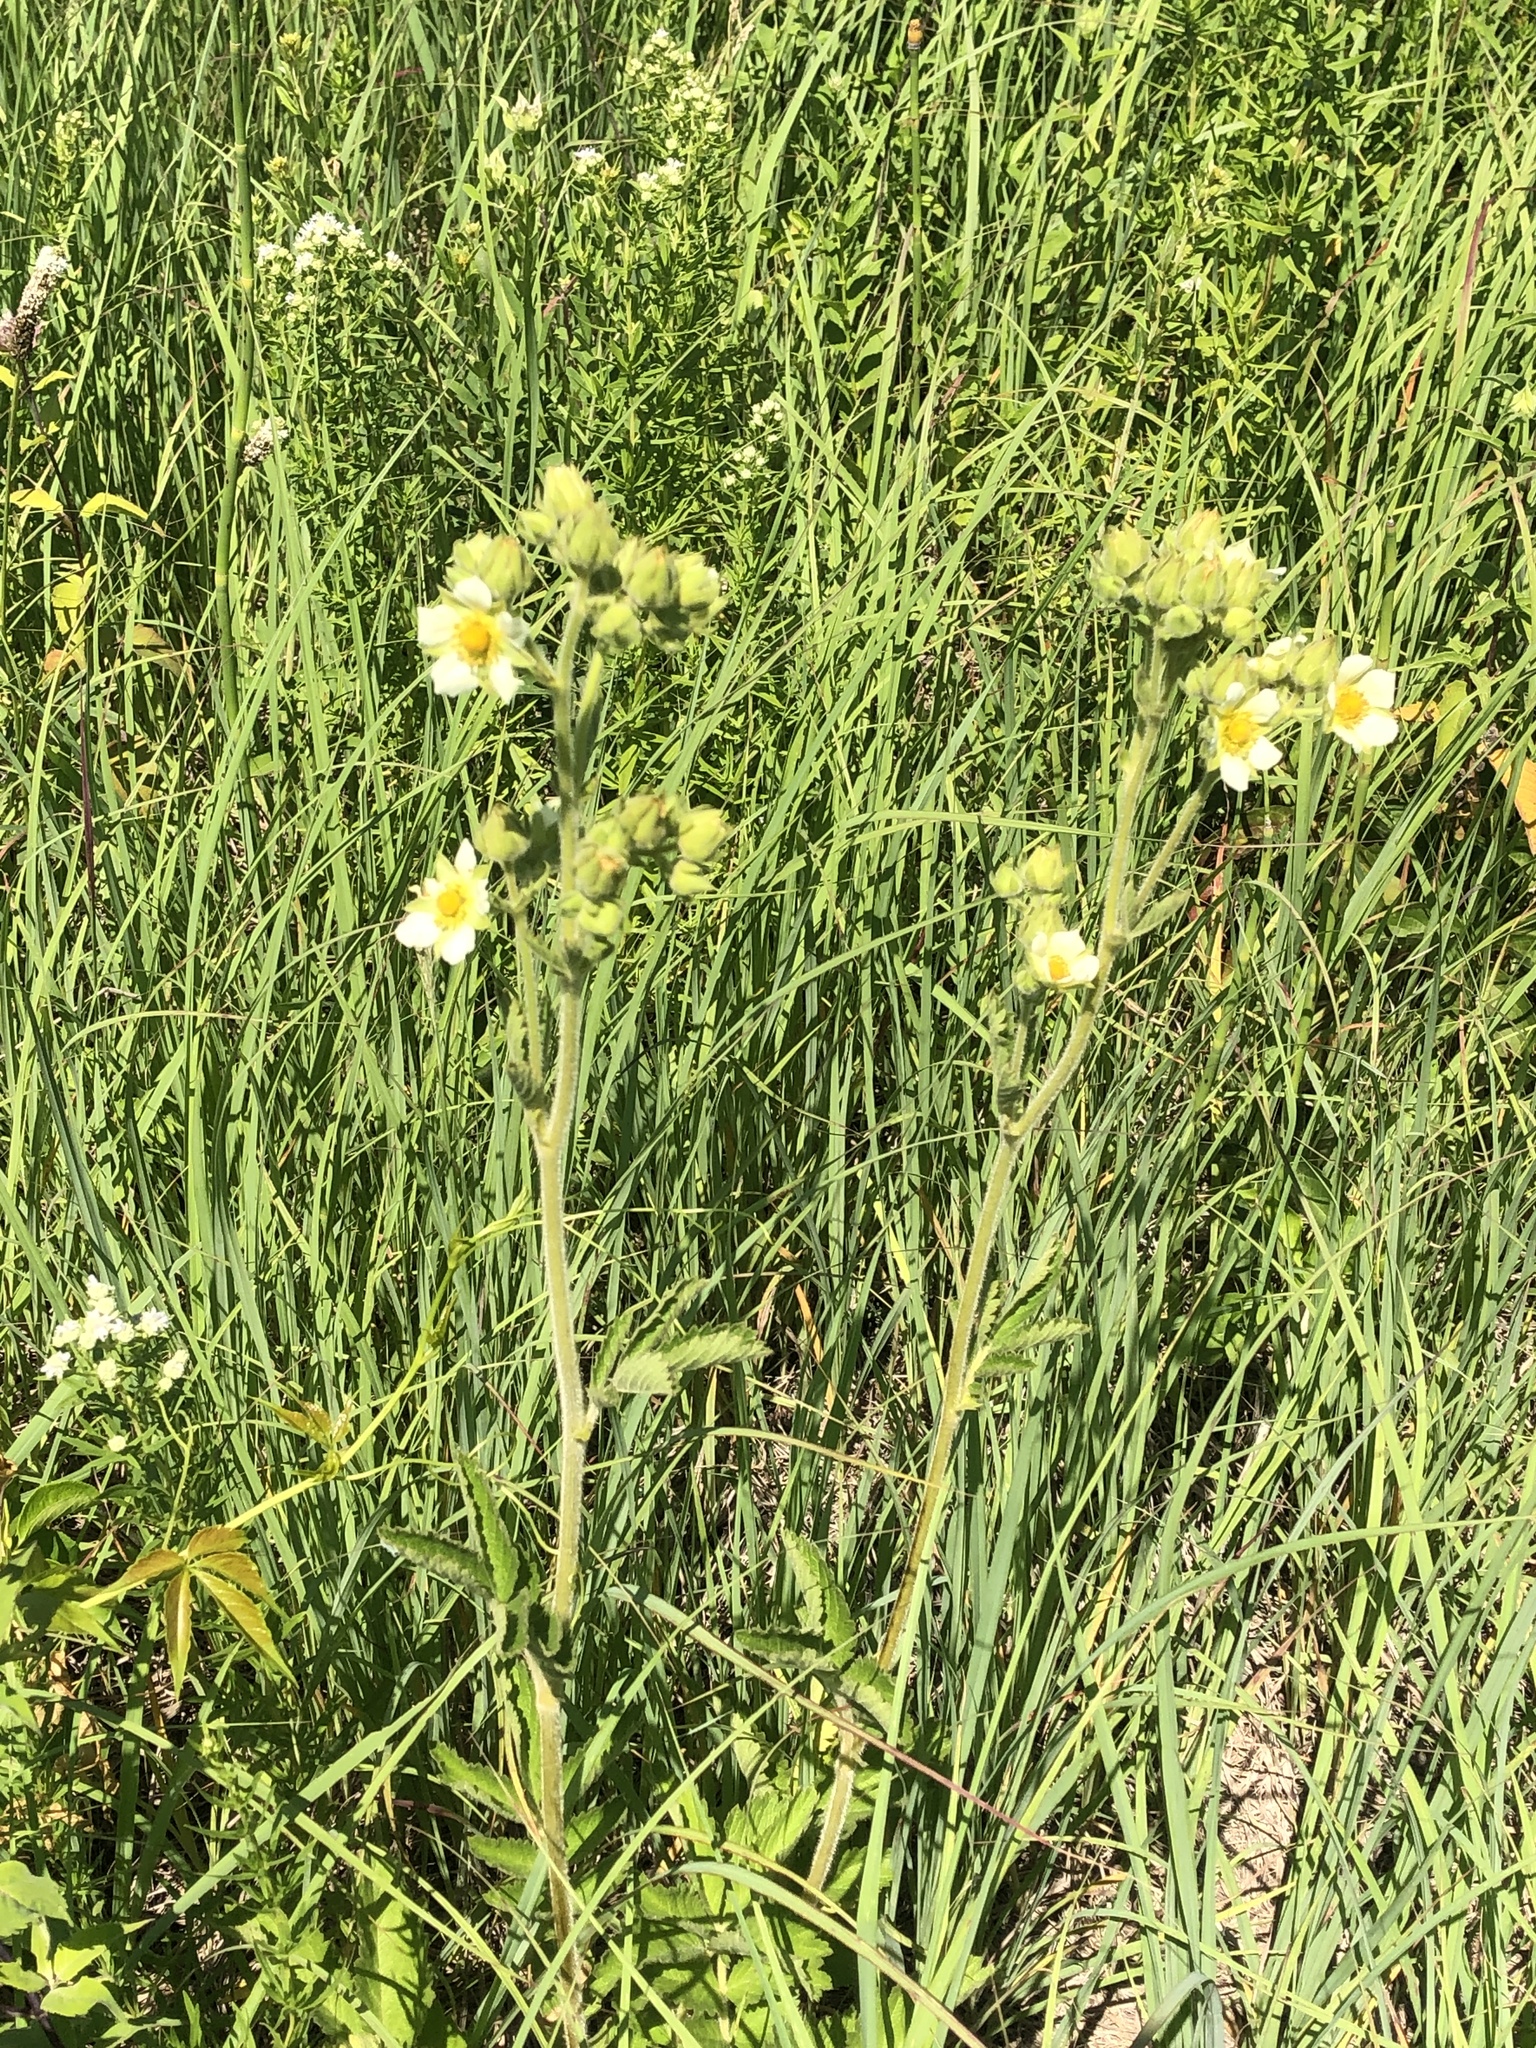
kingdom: Plantae
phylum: Tracheophyta
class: Magnoliopsida
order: Rosales
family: Rosaceae
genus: Drymocallis
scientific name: Drymocallis arguta
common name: Tall cinquefoil
